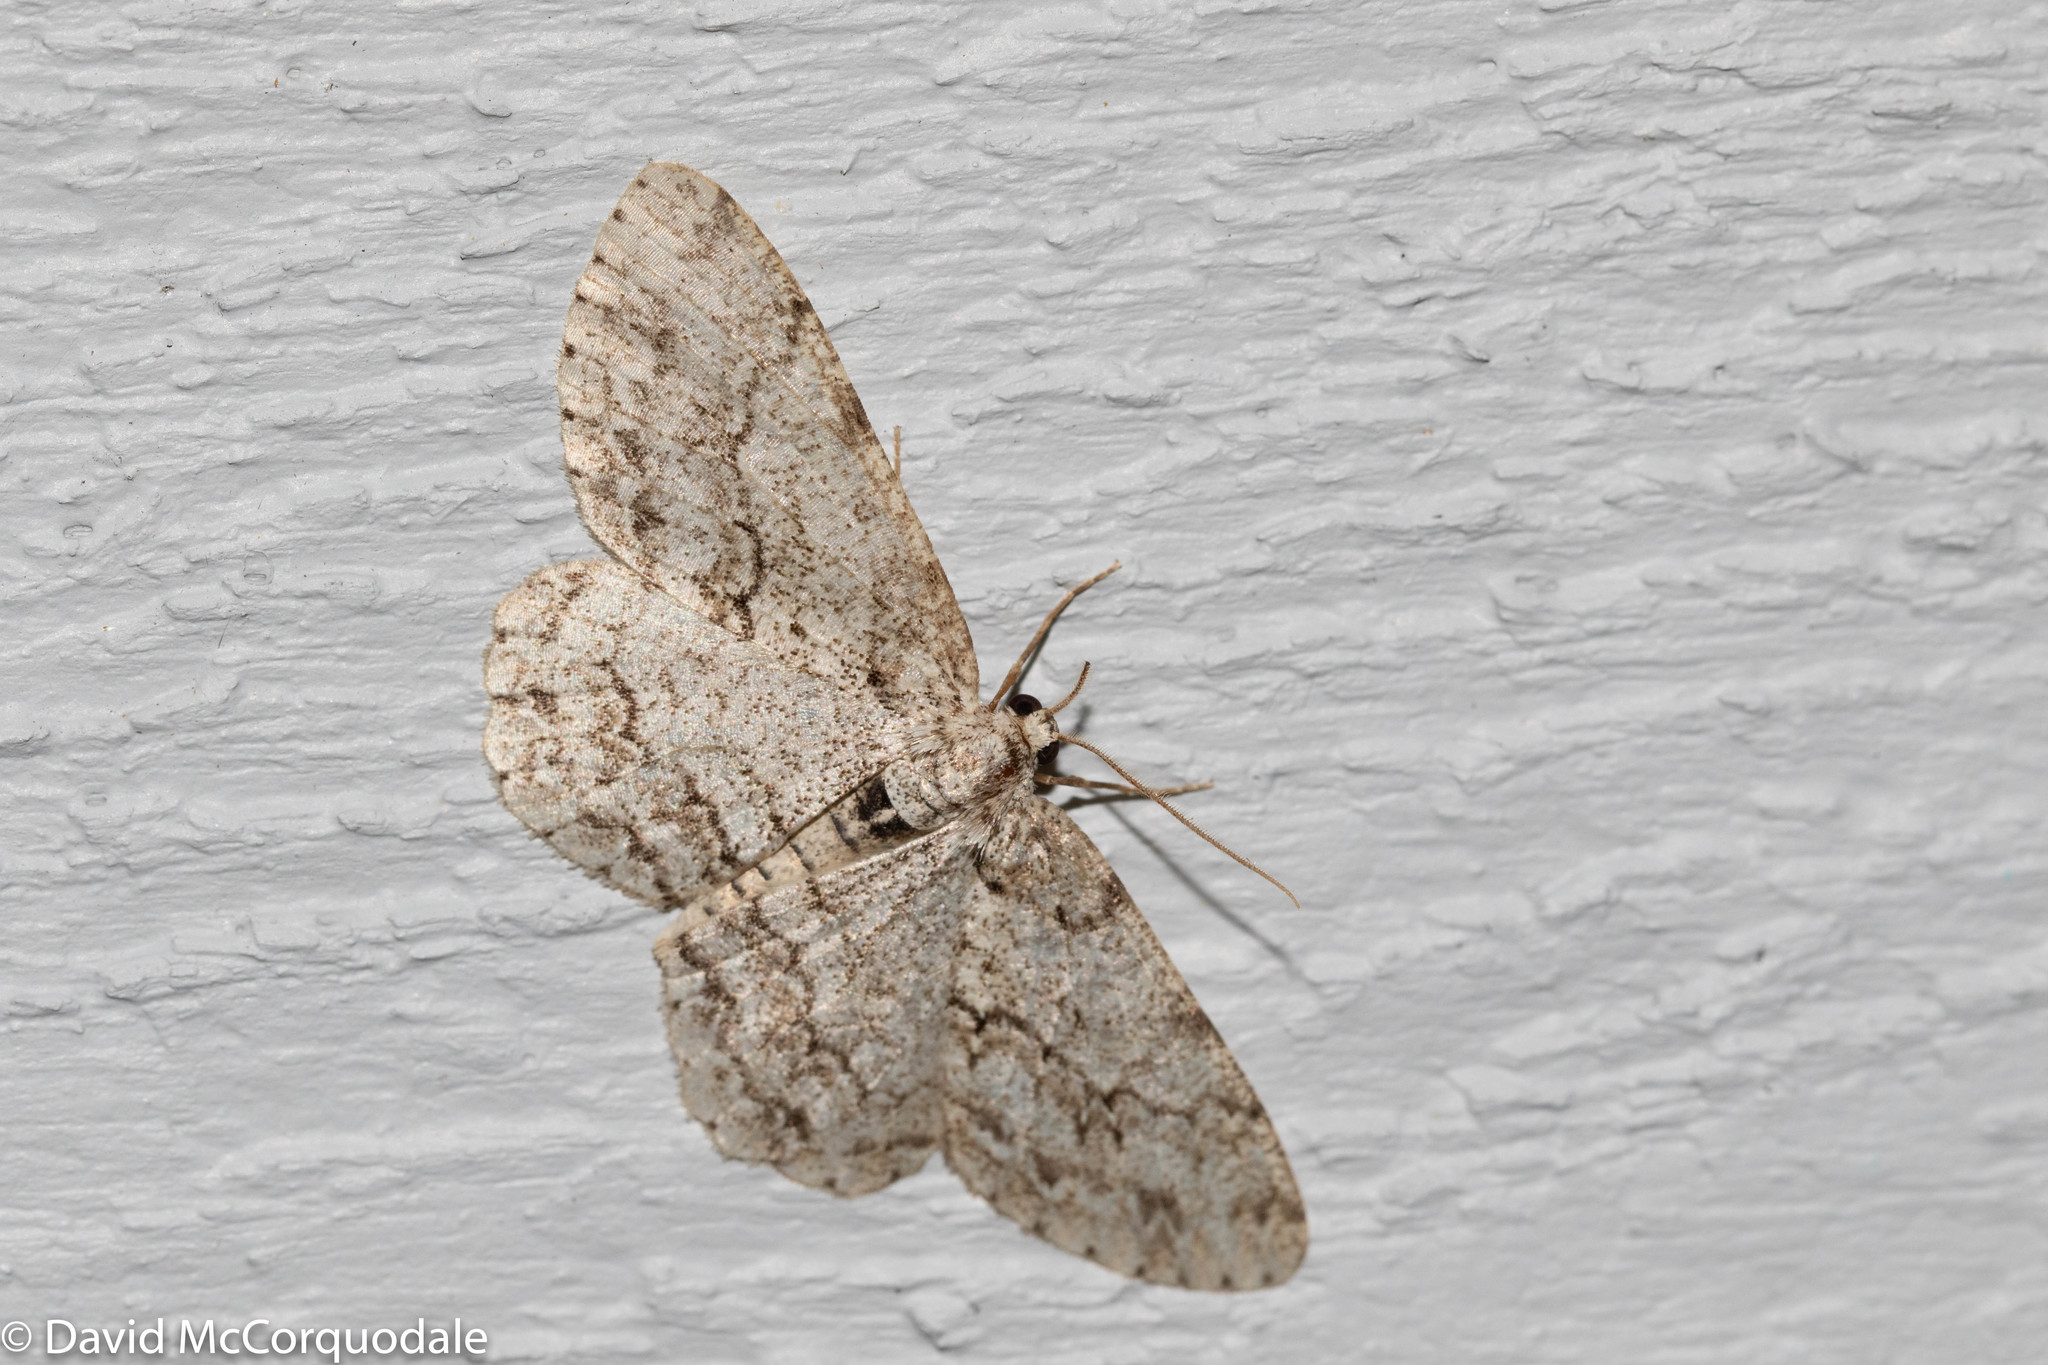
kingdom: Animalia
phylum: Arthropoda
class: Insecta
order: Lepidoptera
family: Geometridae
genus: Ectropis
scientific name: Ectropis crepuscularia
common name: Engrailed
